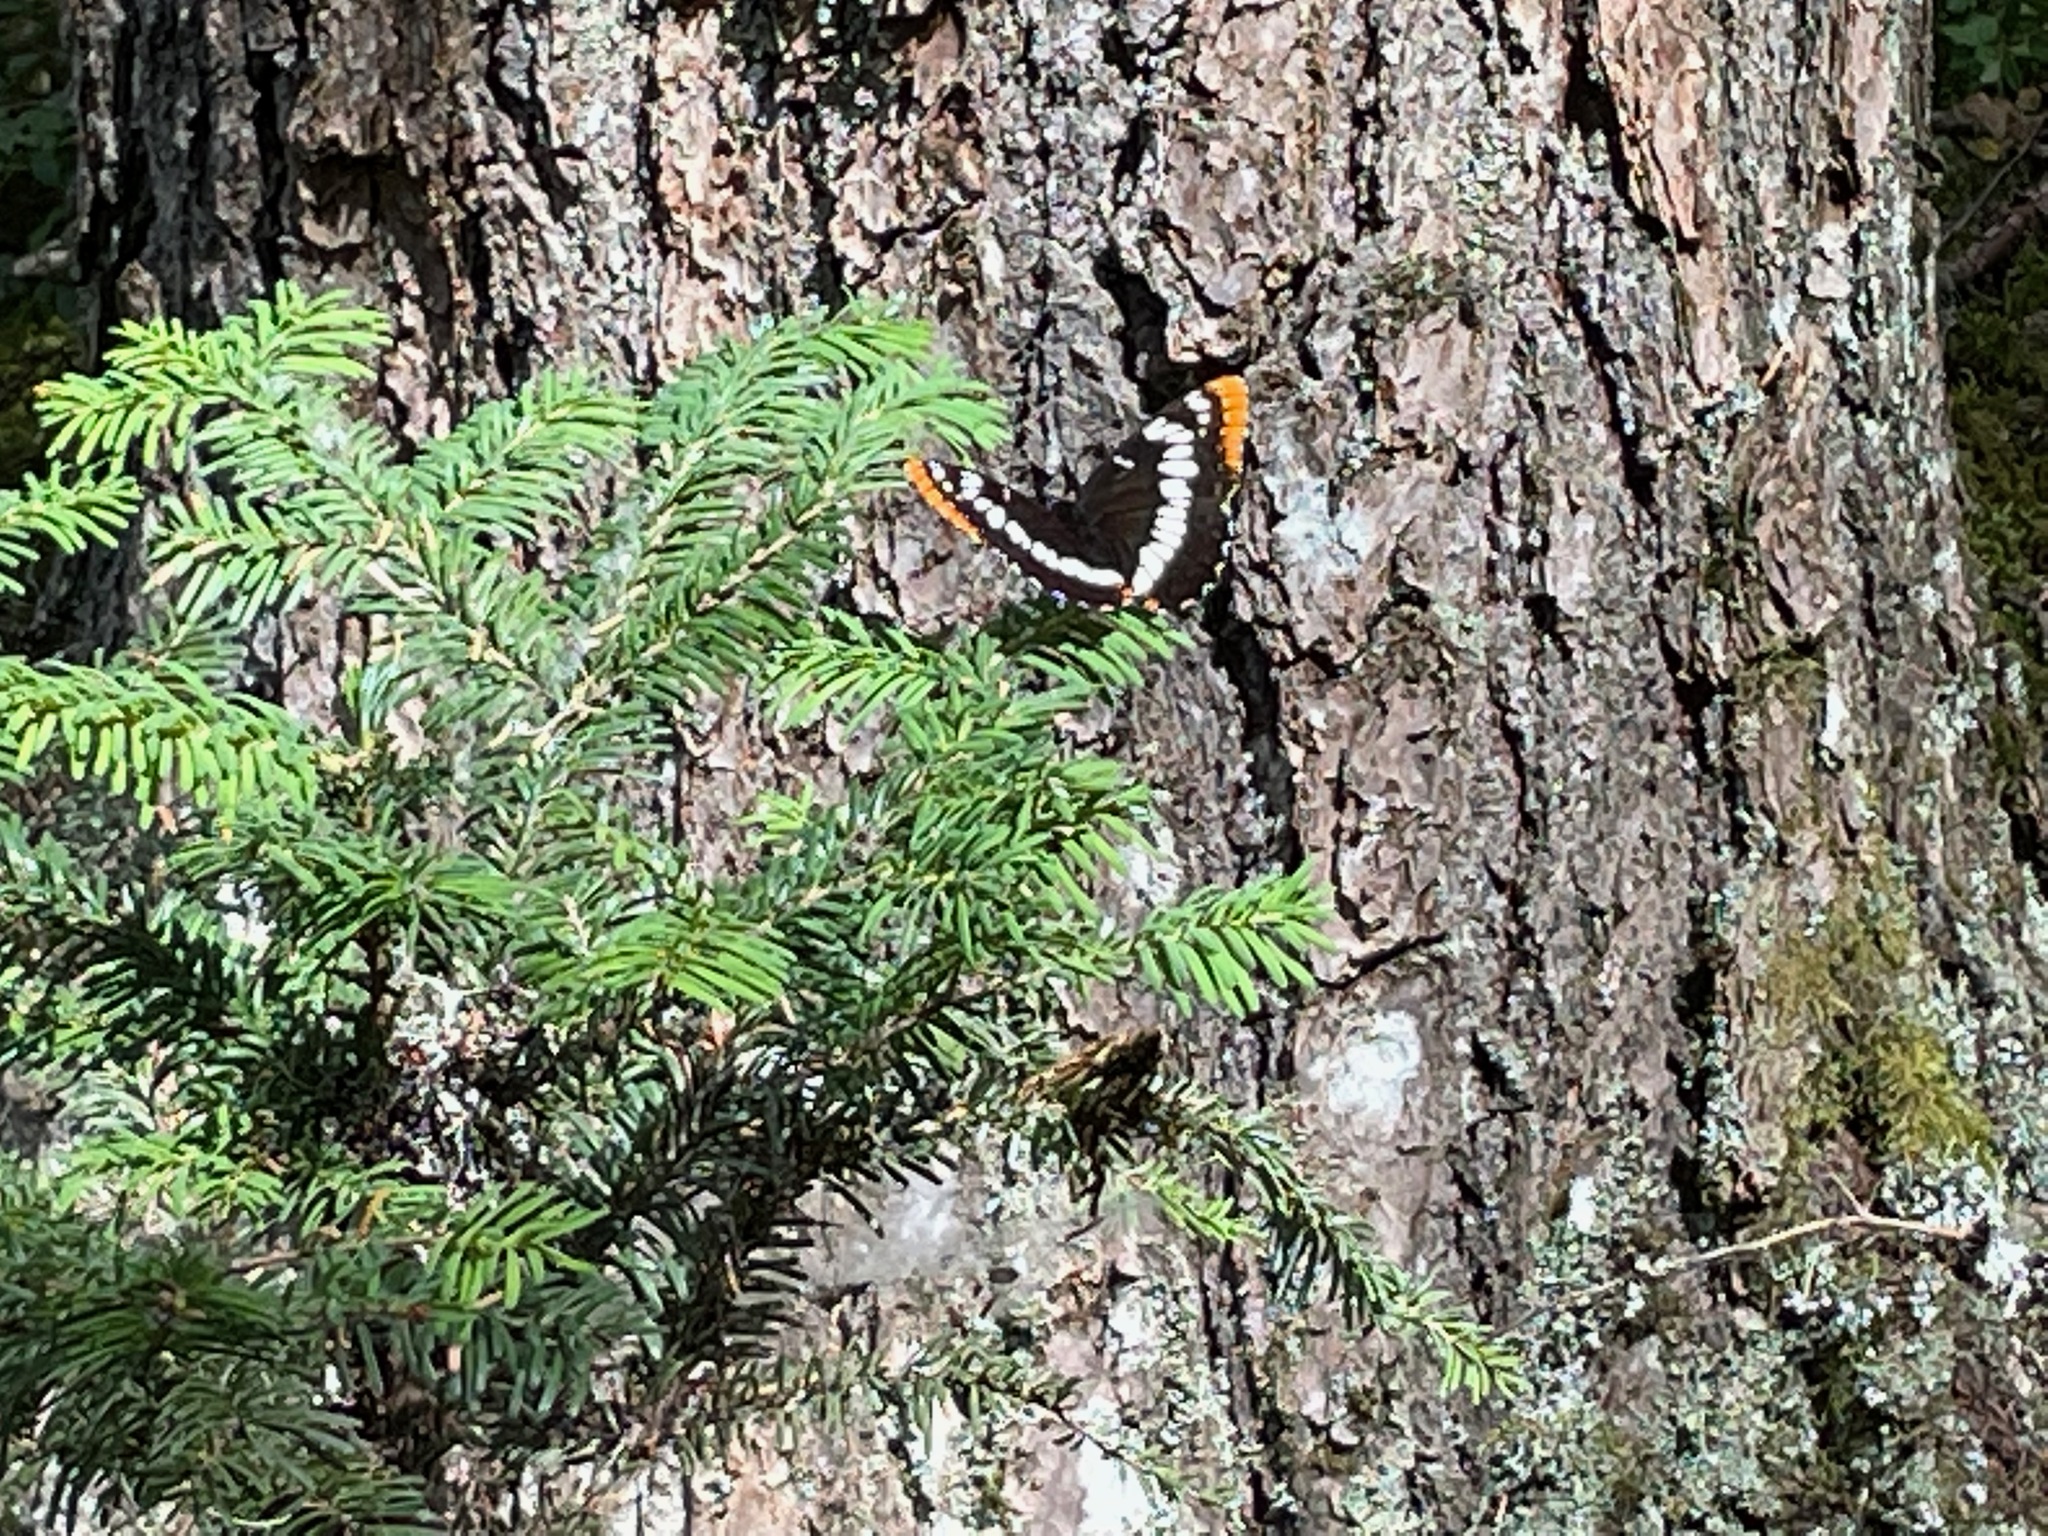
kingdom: Animalia
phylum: Arthropoda
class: Insecta
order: Lepidoptera
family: Nymphalidae
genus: Limenitis
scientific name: Limenitis lorquini
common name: Lorquin's admiral
